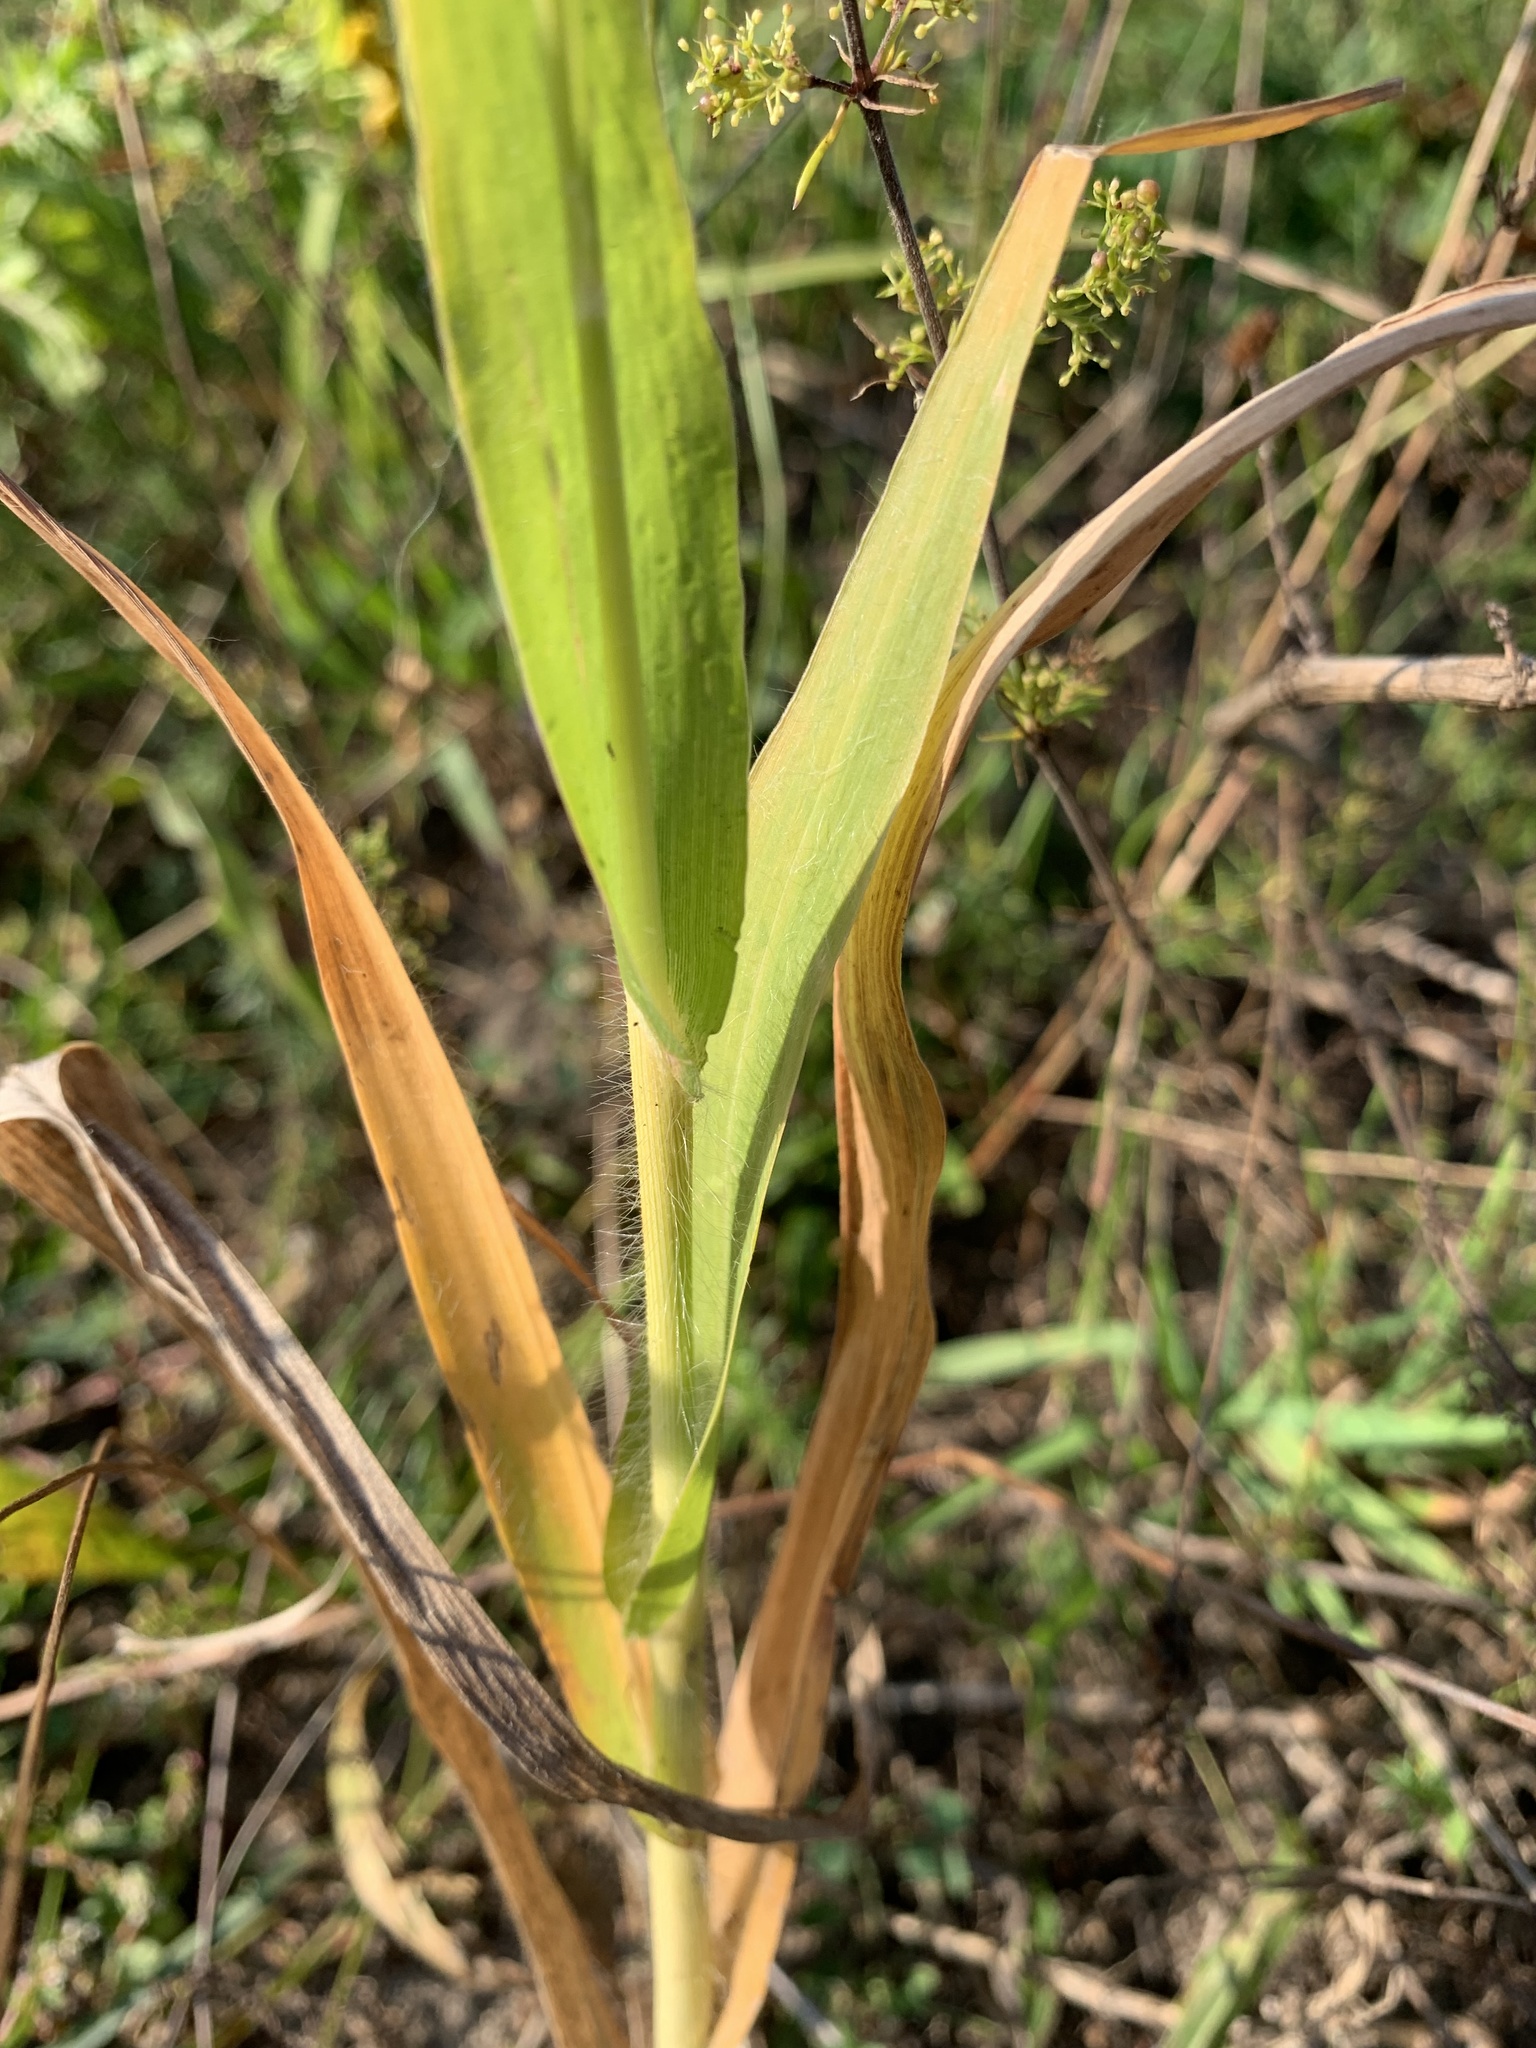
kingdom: Plantae
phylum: Tracheophyta
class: Liliopsida
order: Poales
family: Poaceae
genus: Panicum
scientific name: Panicum miliaceum
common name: Common millet
